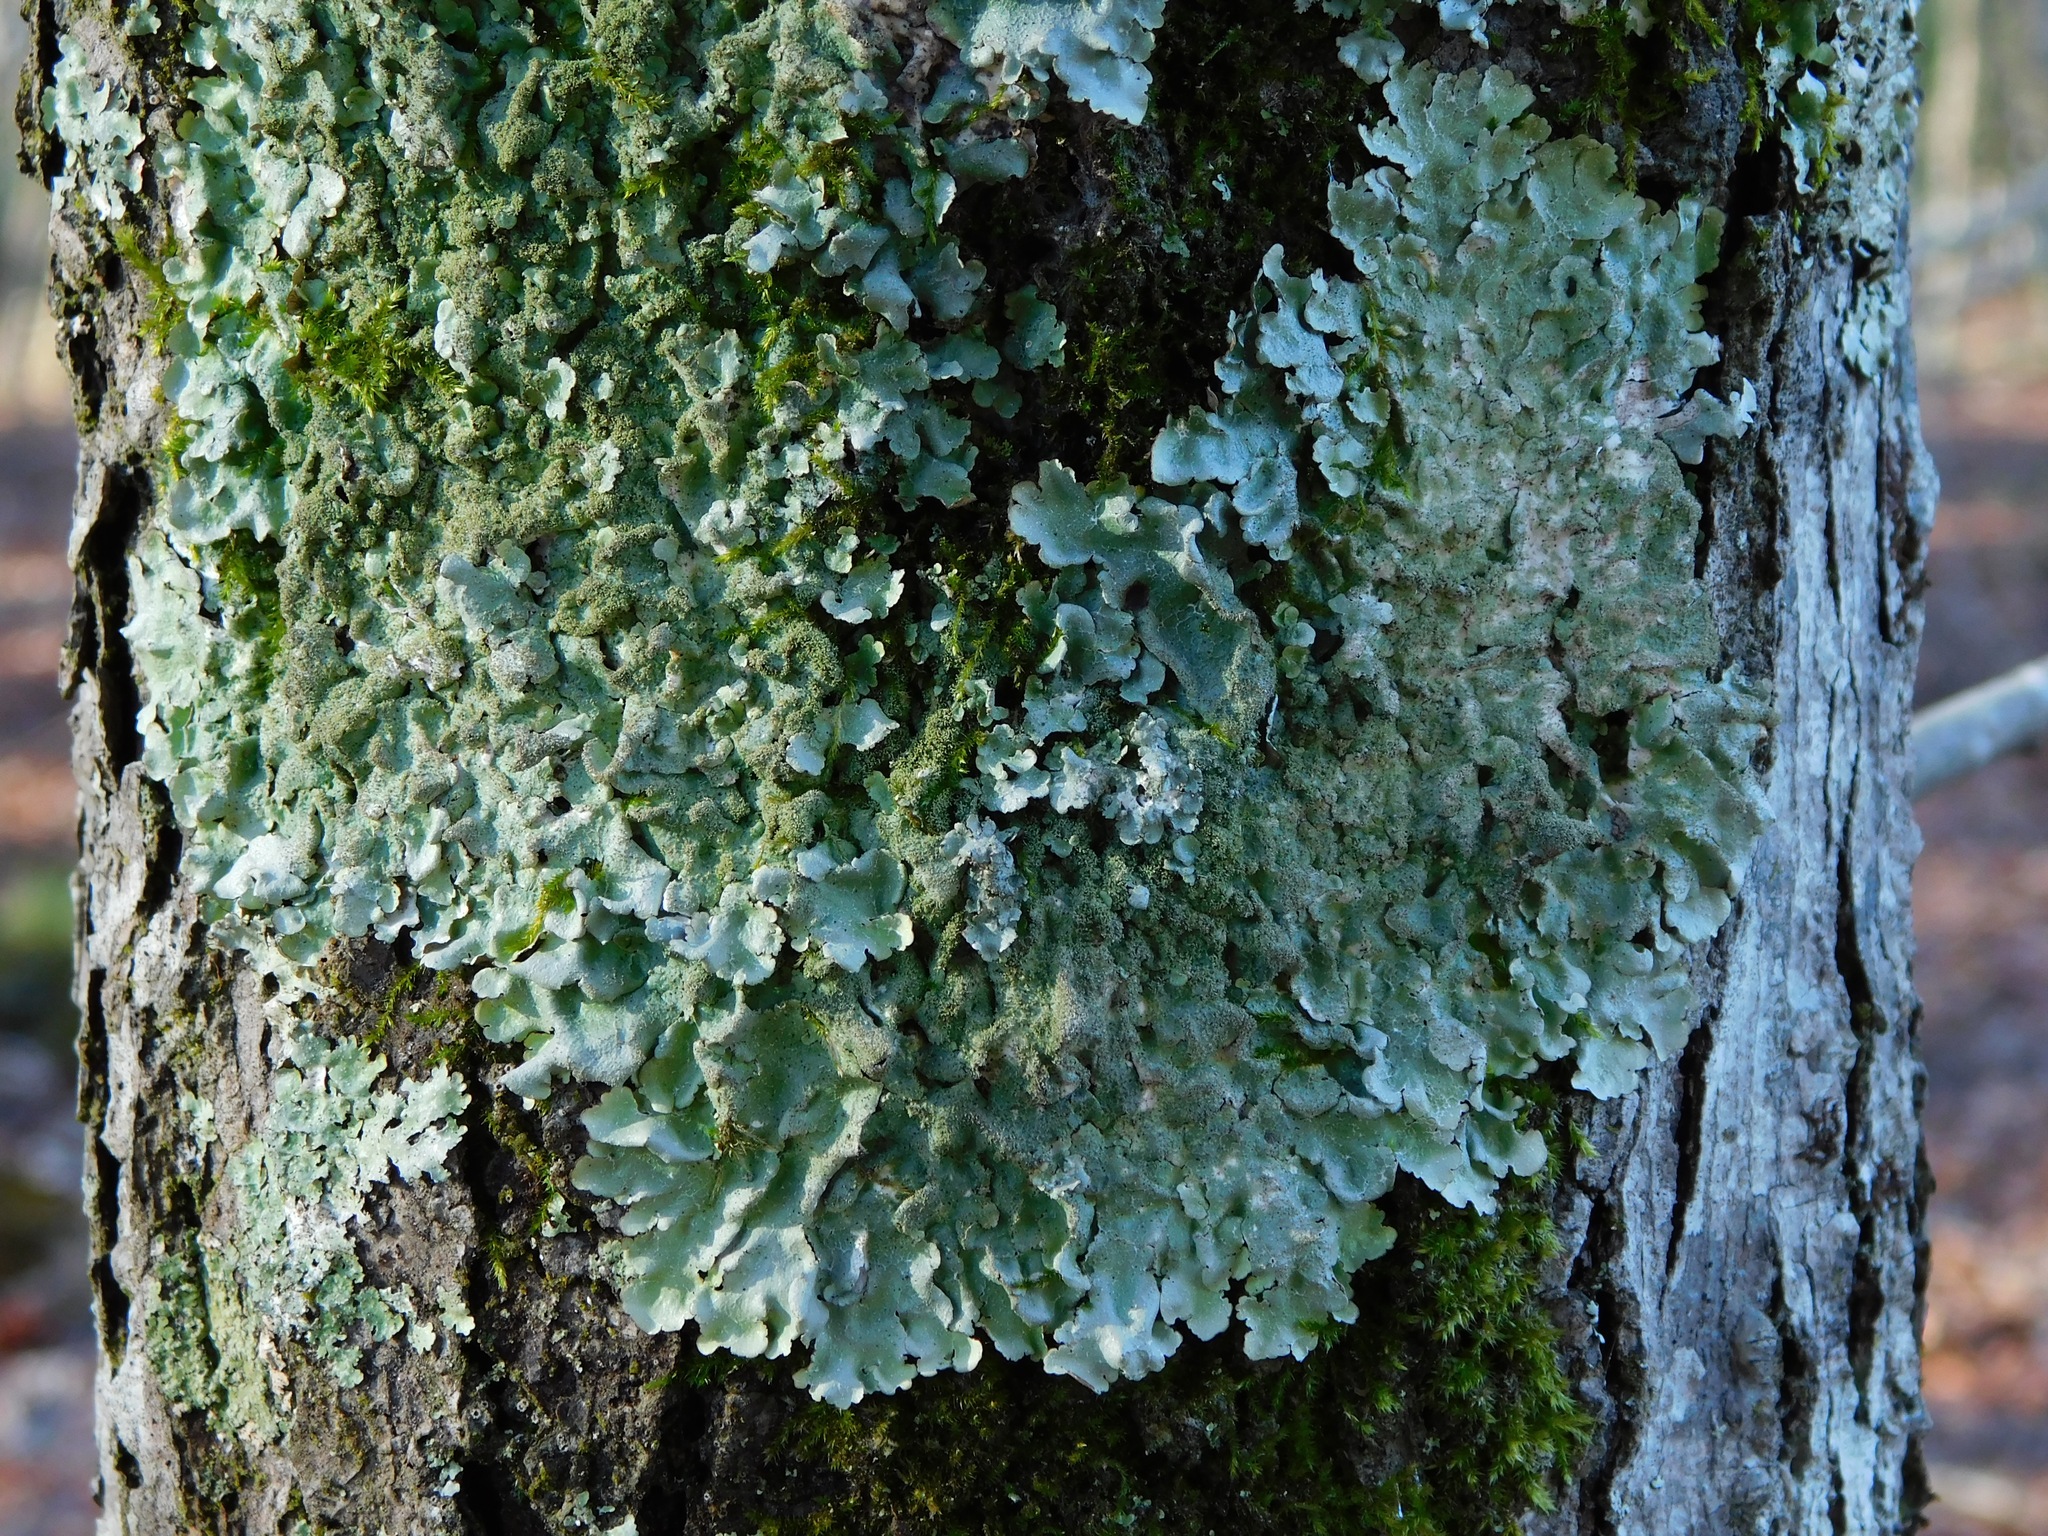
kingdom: Fungi
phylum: Ascomycota
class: Lecanoromycetes
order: Lecanorales
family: Parmeliaceae
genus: Canoparmelia
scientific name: Canoparmelia caroliniana
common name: Carolina shield lichen
